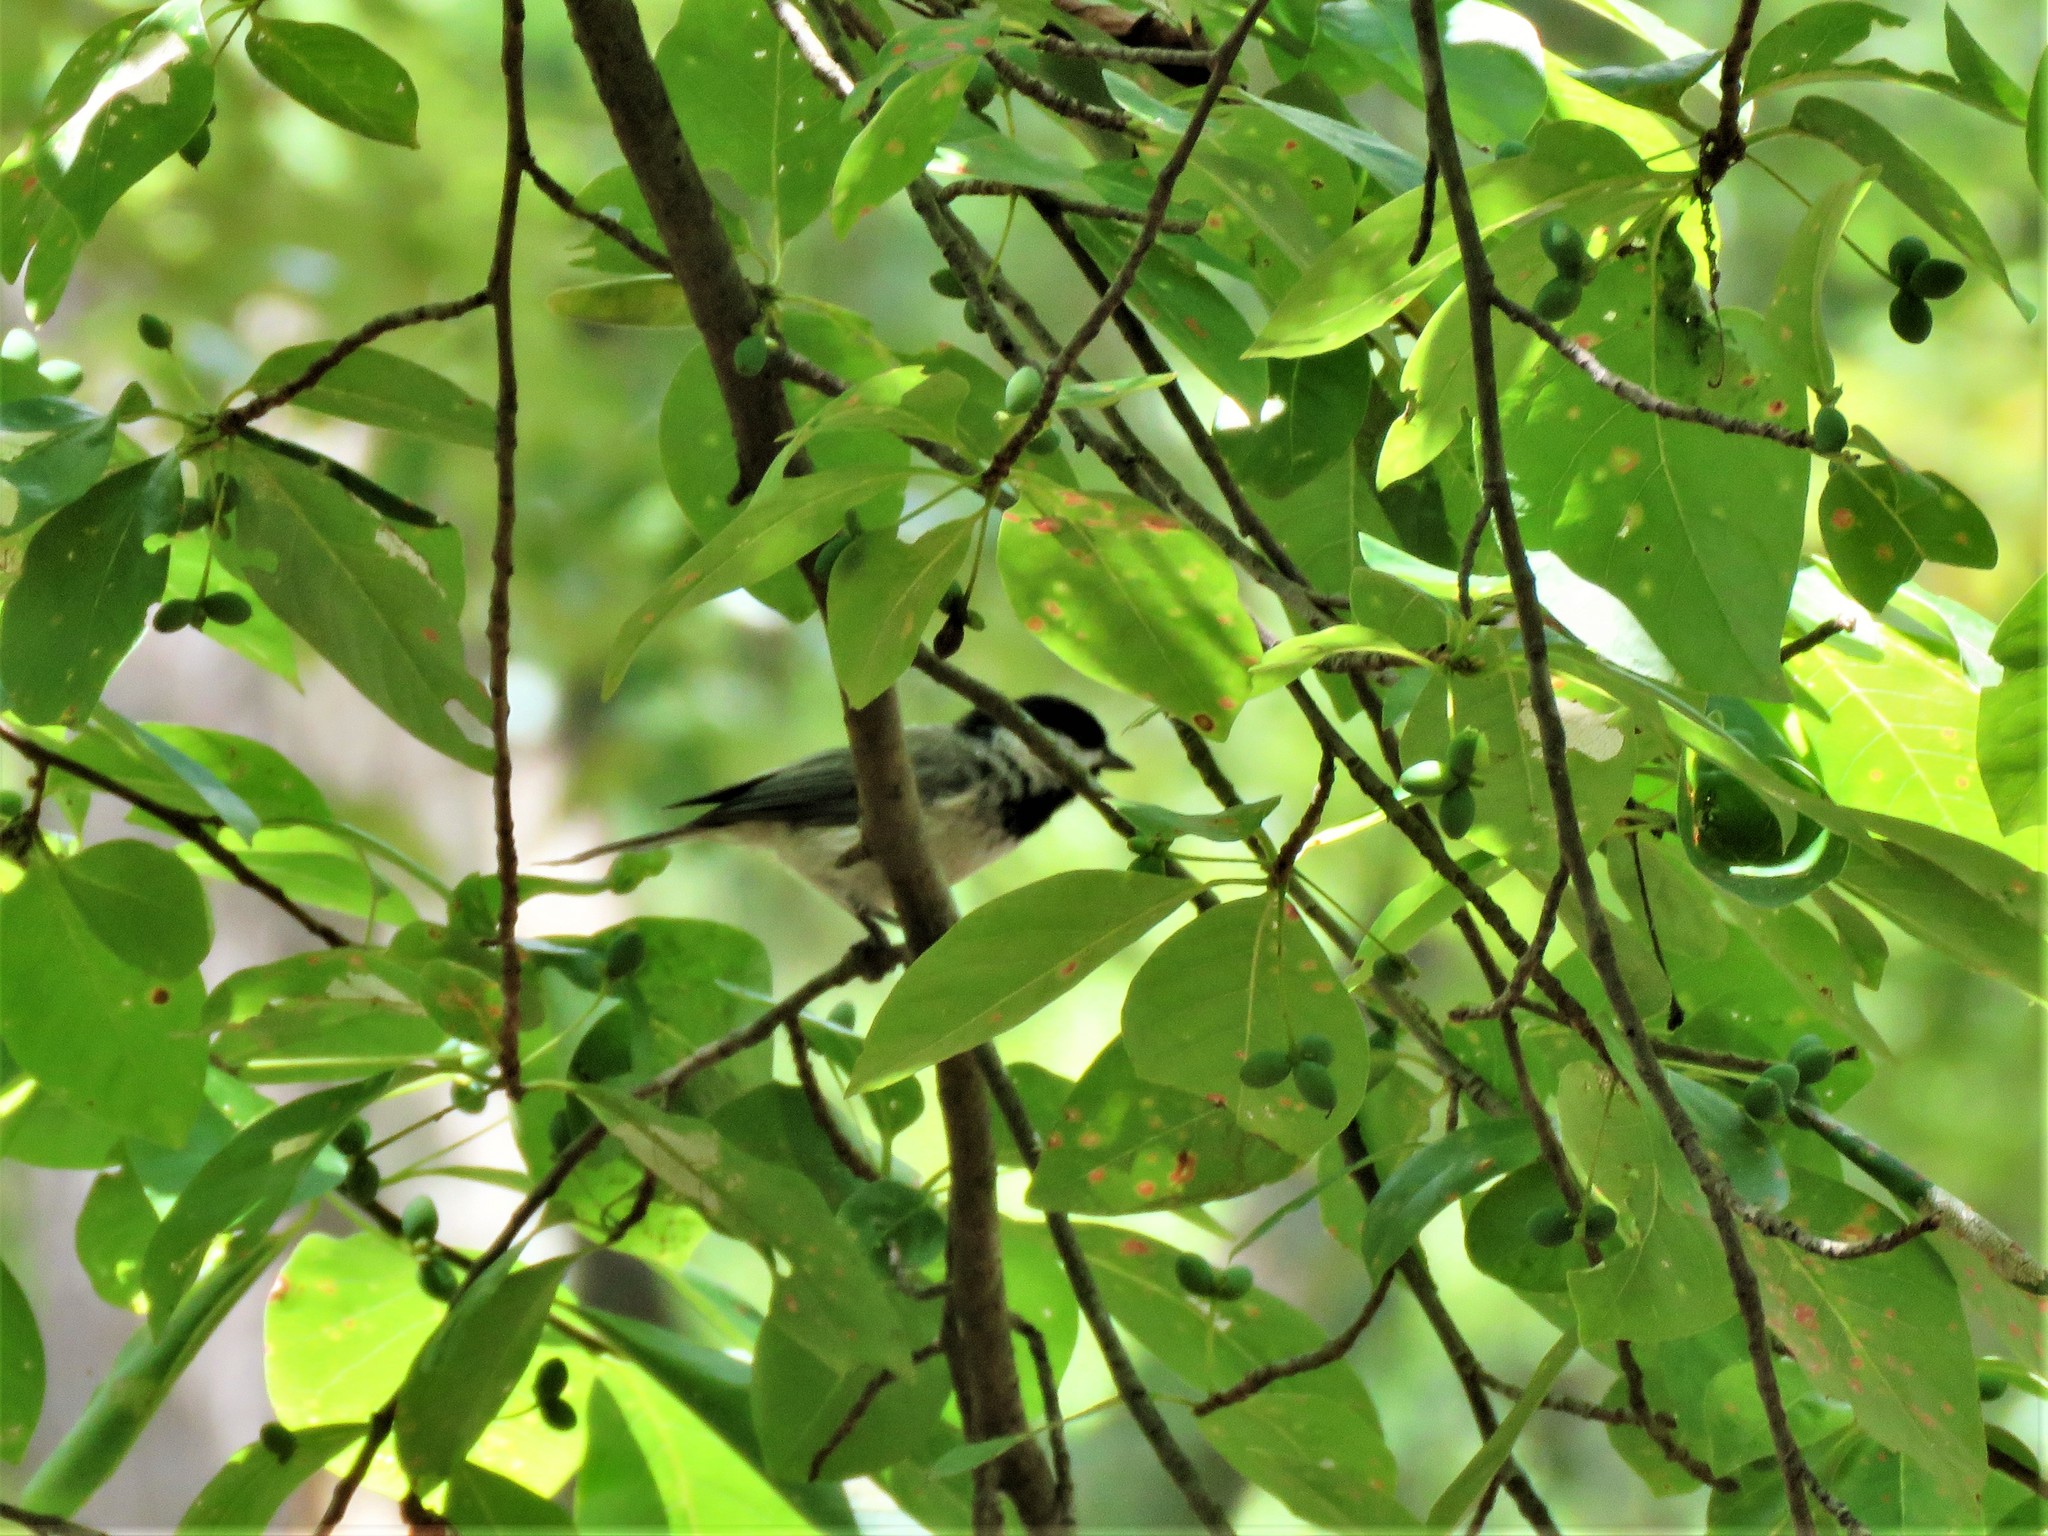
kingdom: Animalia
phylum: Chordata
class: Aves
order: Passeriformes
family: Paridae
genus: Poecile
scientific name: Poecile carolinensis
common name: Carolina chickadee
